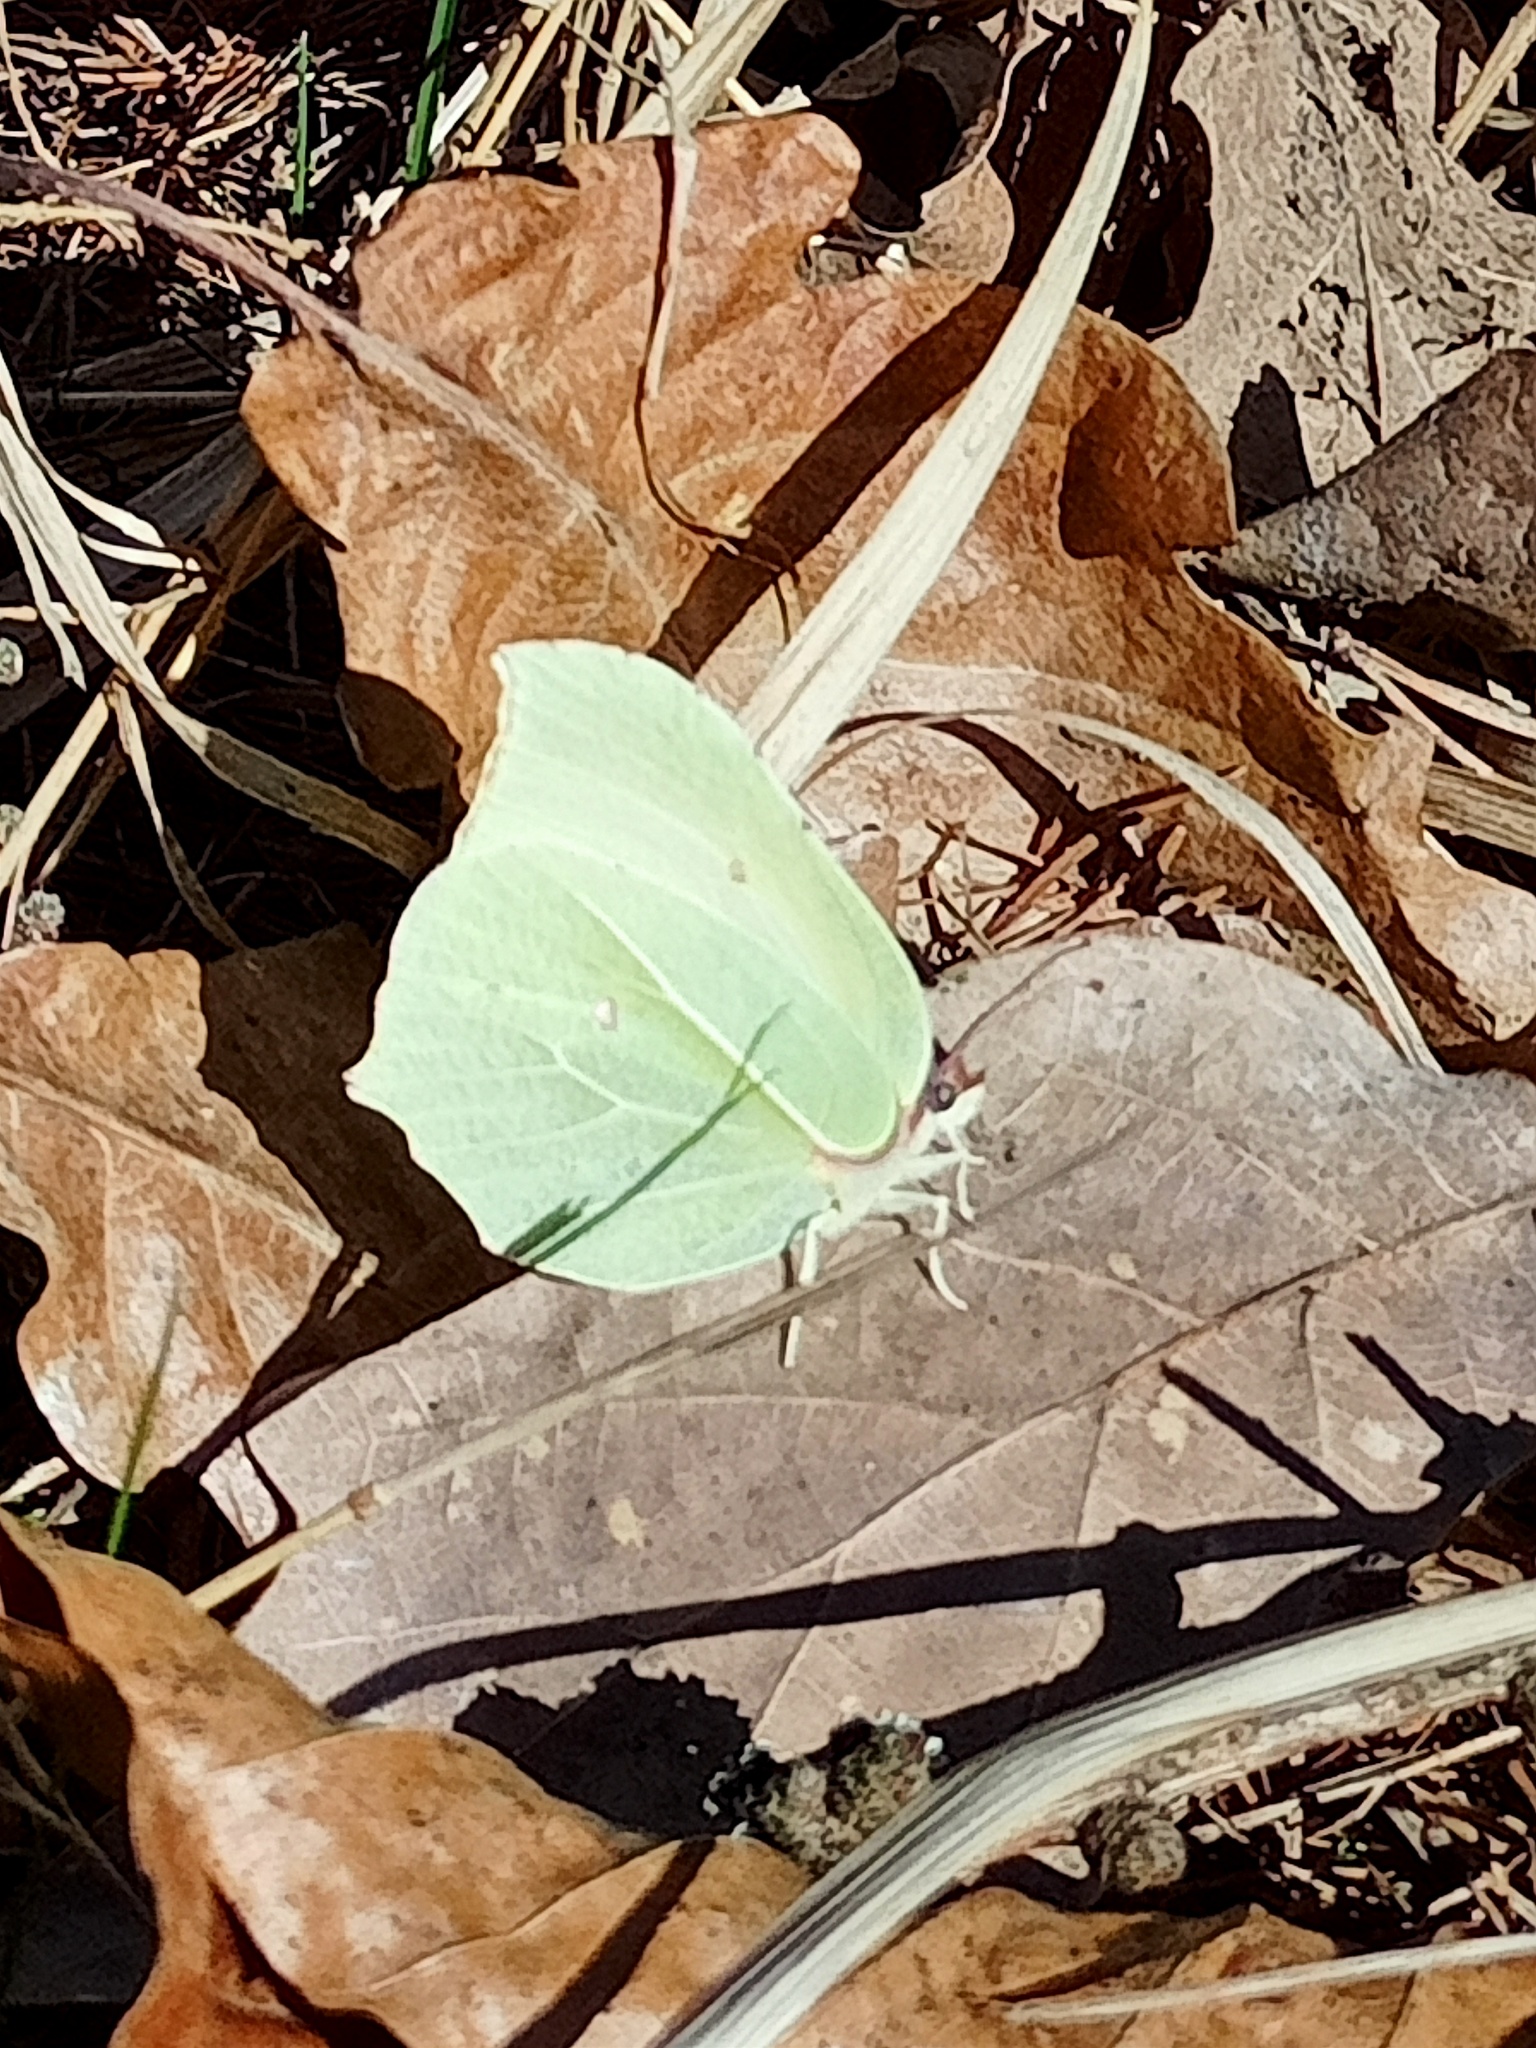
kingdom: Animalia
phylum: Arthropoda
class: Insecta
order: Lepidoptera
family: Pieridae
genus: Gonepteryx
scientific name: Gonepteryx rhamni
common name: Brimstone
